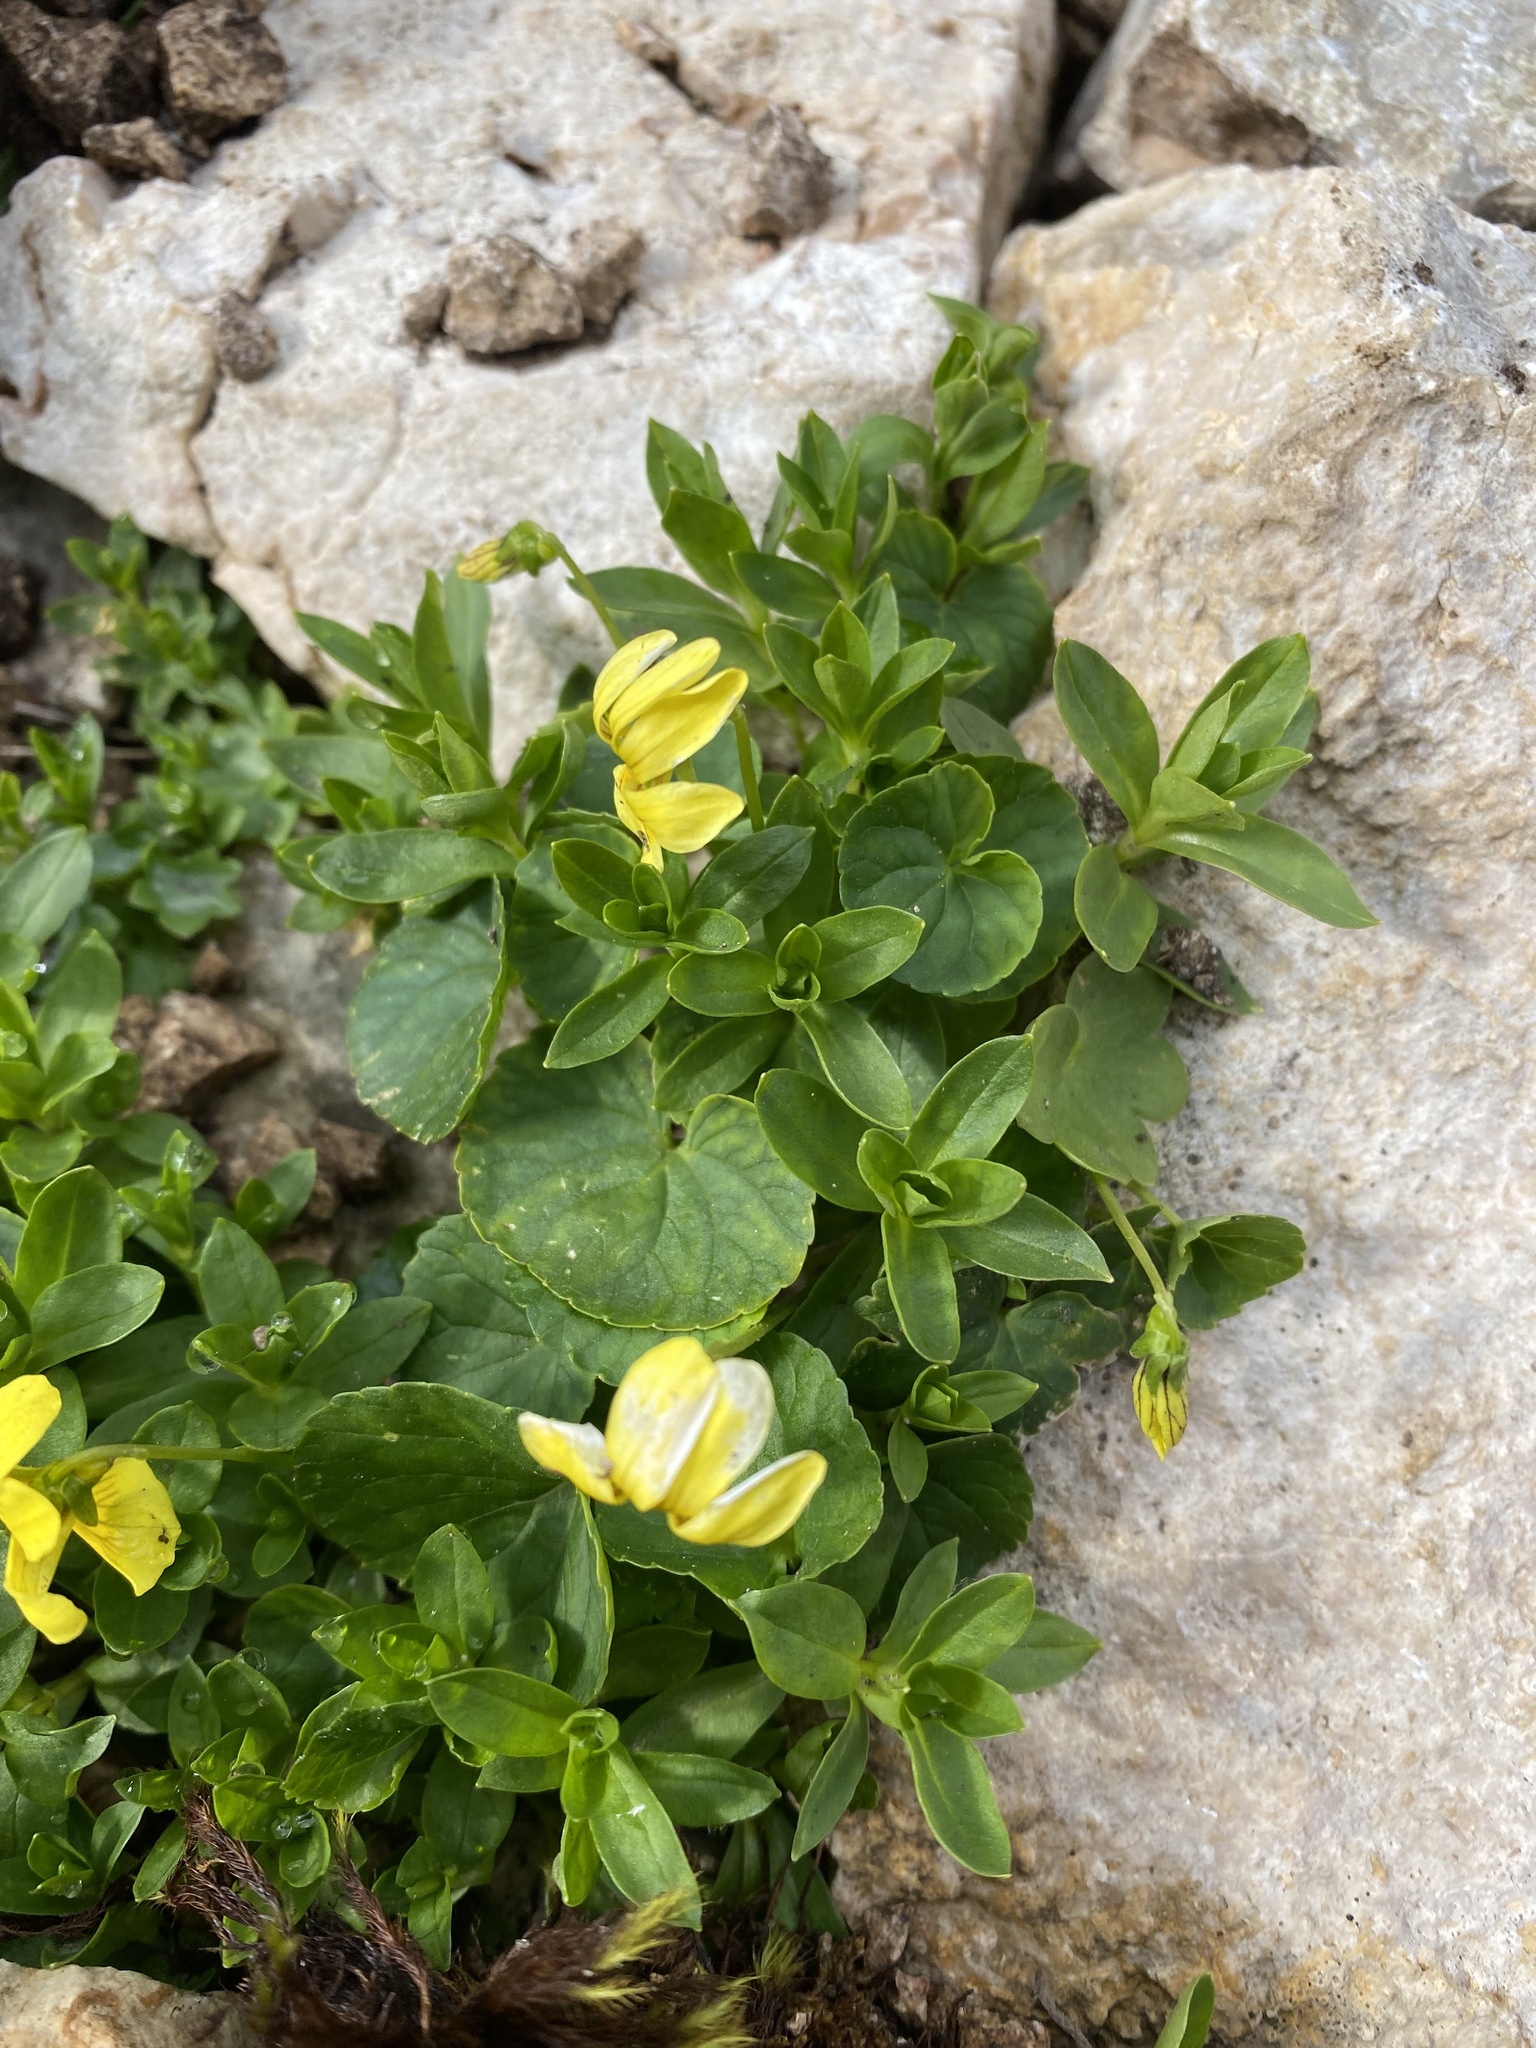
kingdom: Plantae
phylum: Tracheophyta
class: Magnoliopsida
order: Malpighiales
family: Violaceae
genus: Viola
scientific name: Viola caucasica
